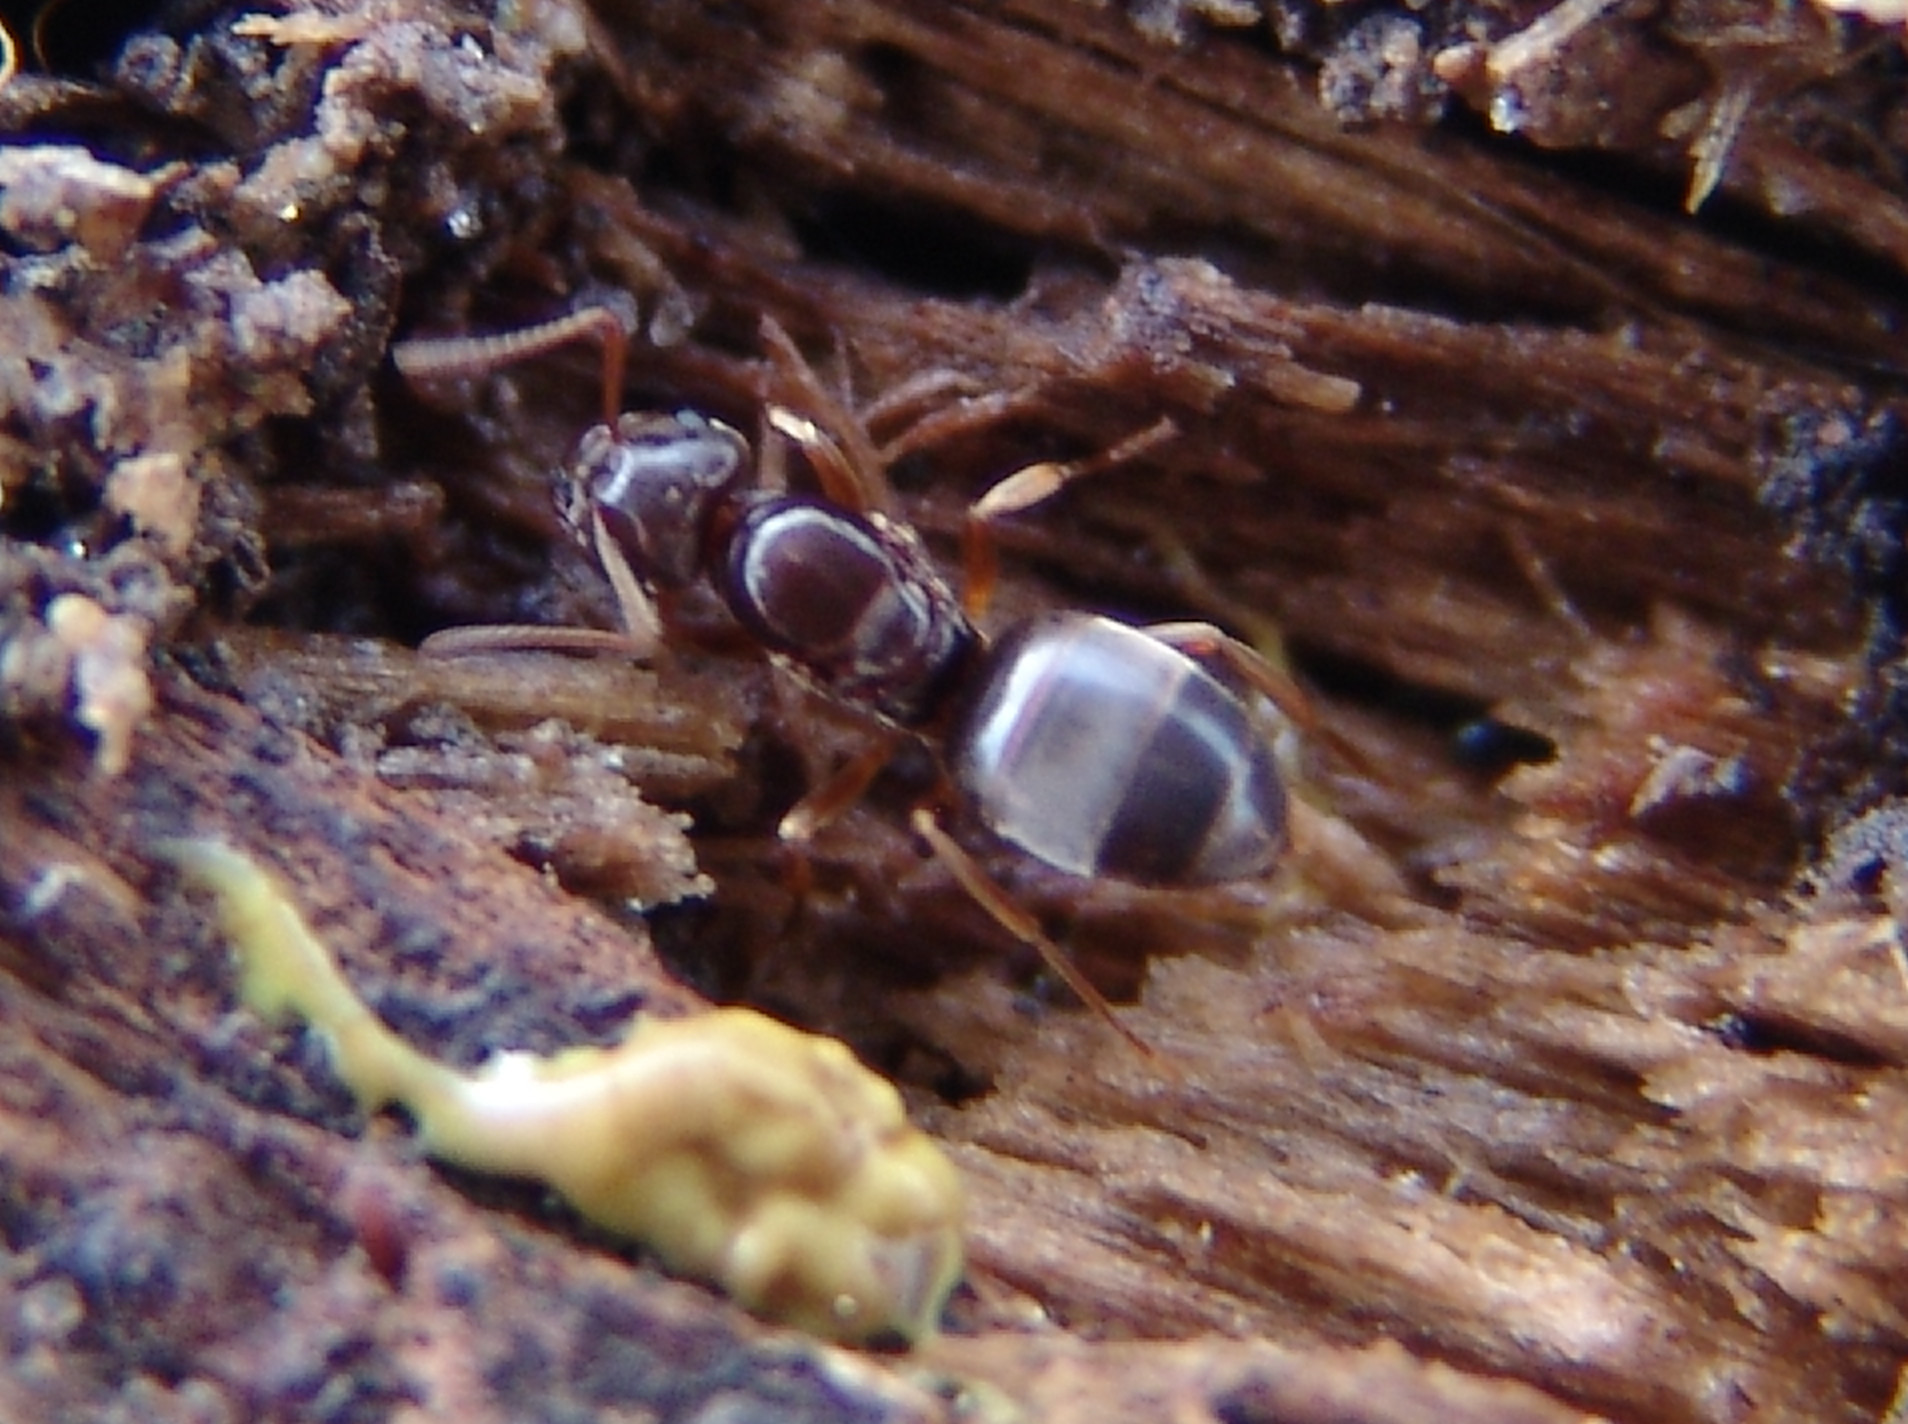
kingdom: Animalia
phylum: Arthropoda
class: Insecta
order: Hymenoptera
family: Formicidae
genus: Lasius
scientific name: Lasius aphidicola
